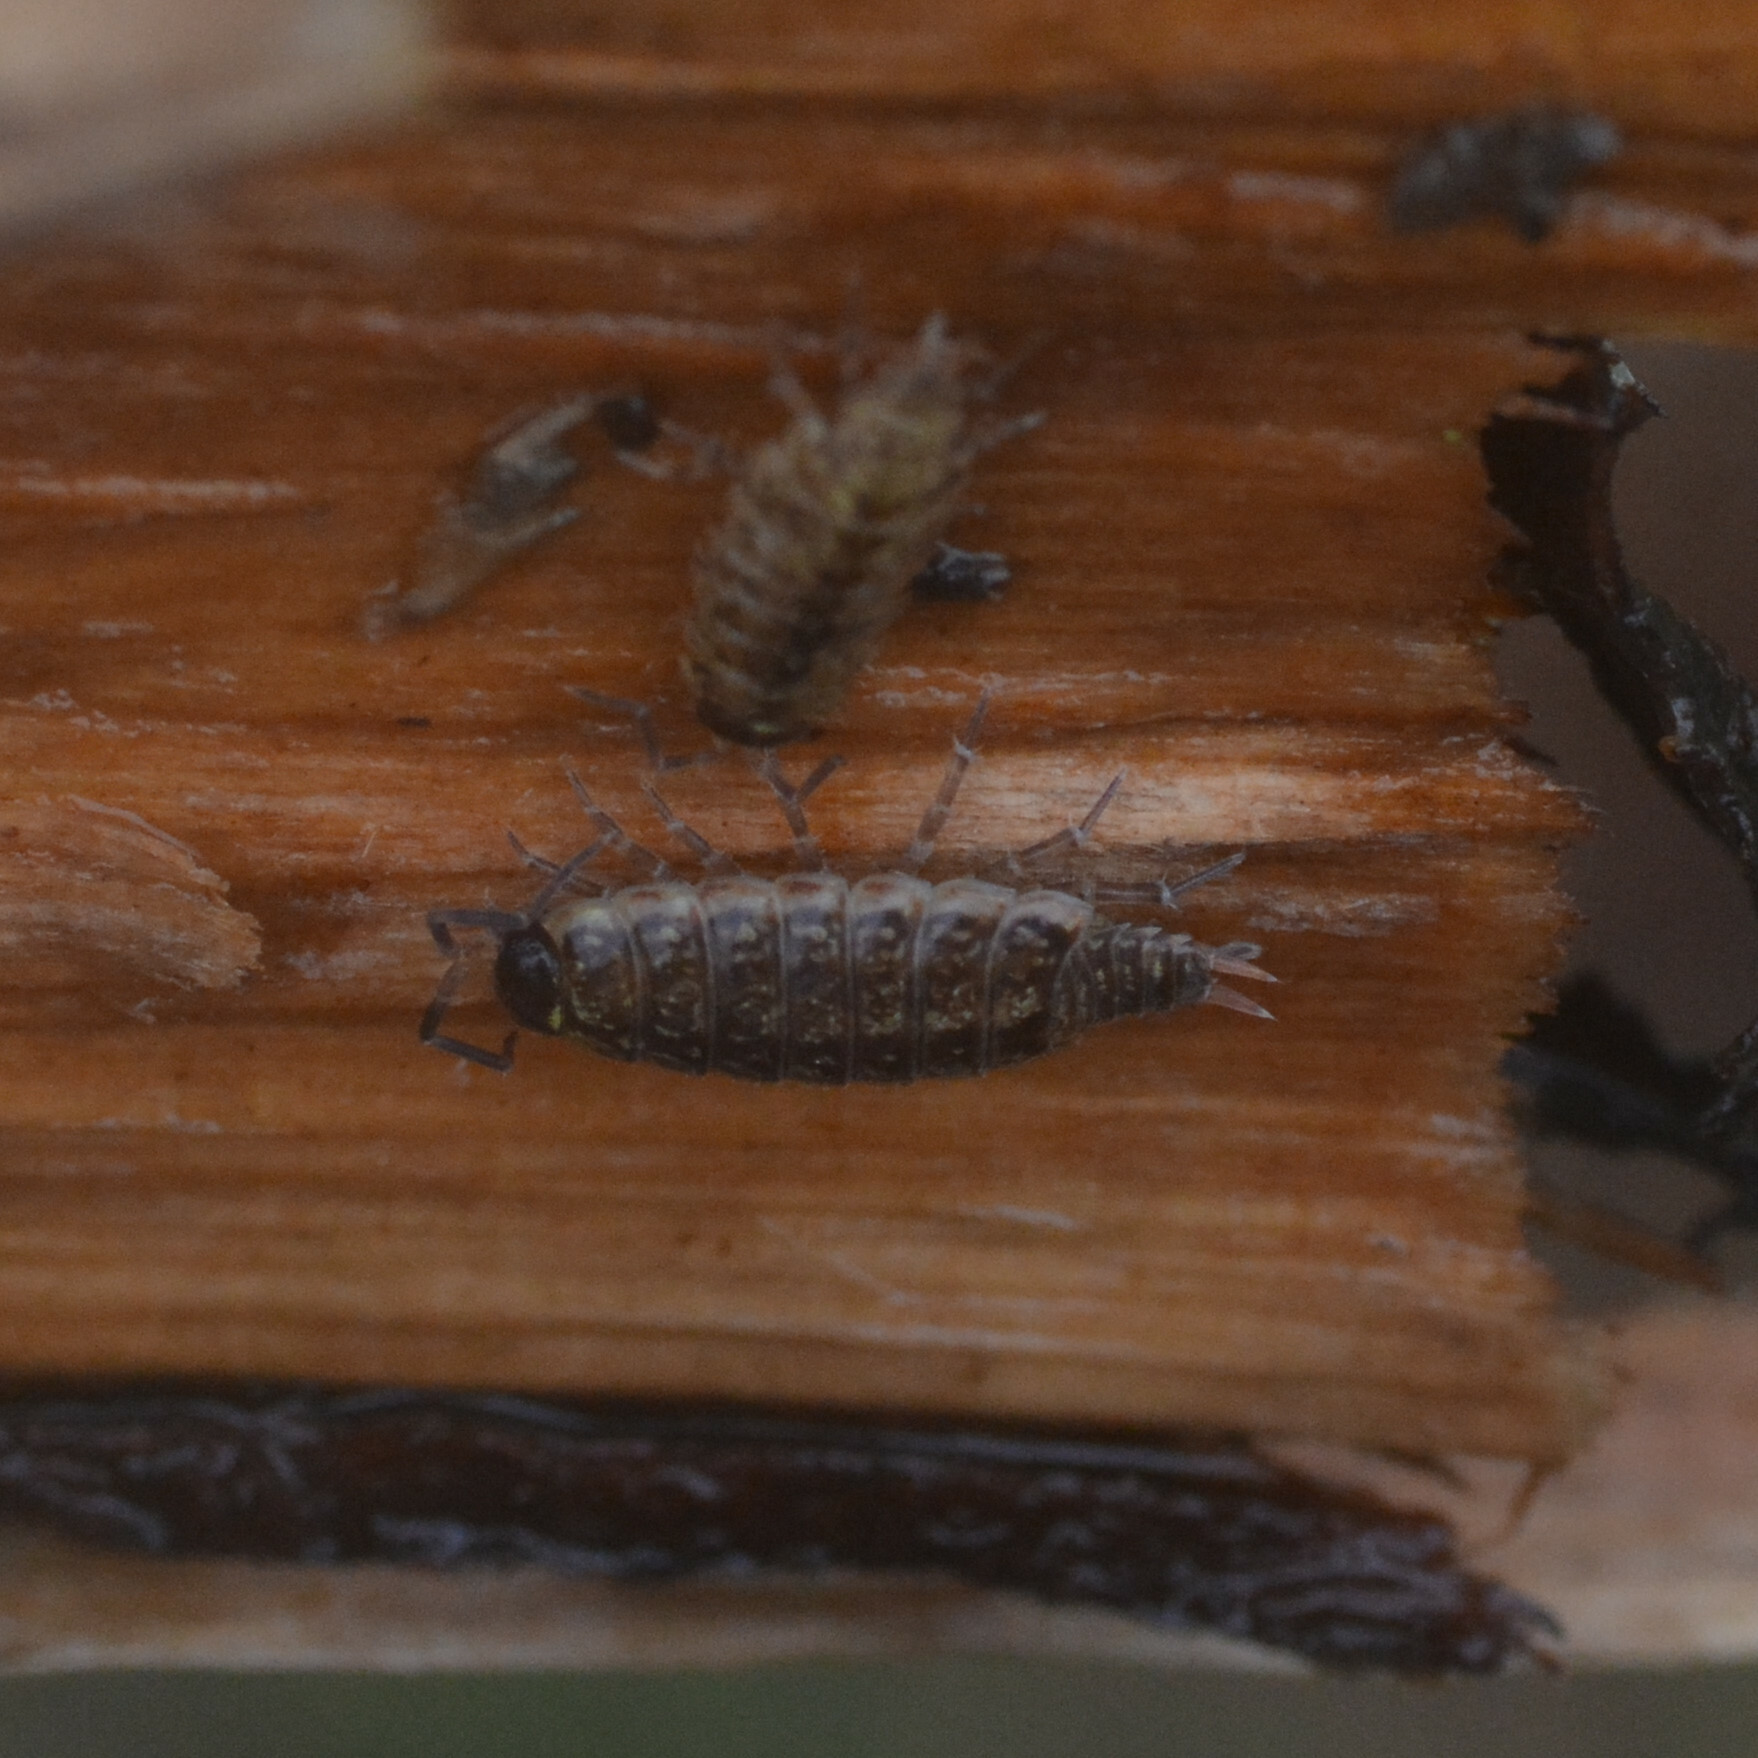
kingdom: Animalia
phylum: Arthropoda
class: Malacostraca
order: Isopoda
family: Philosciidae
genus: Philoscia
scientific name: Philoscia muscorum
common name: Common striped woodlouse
